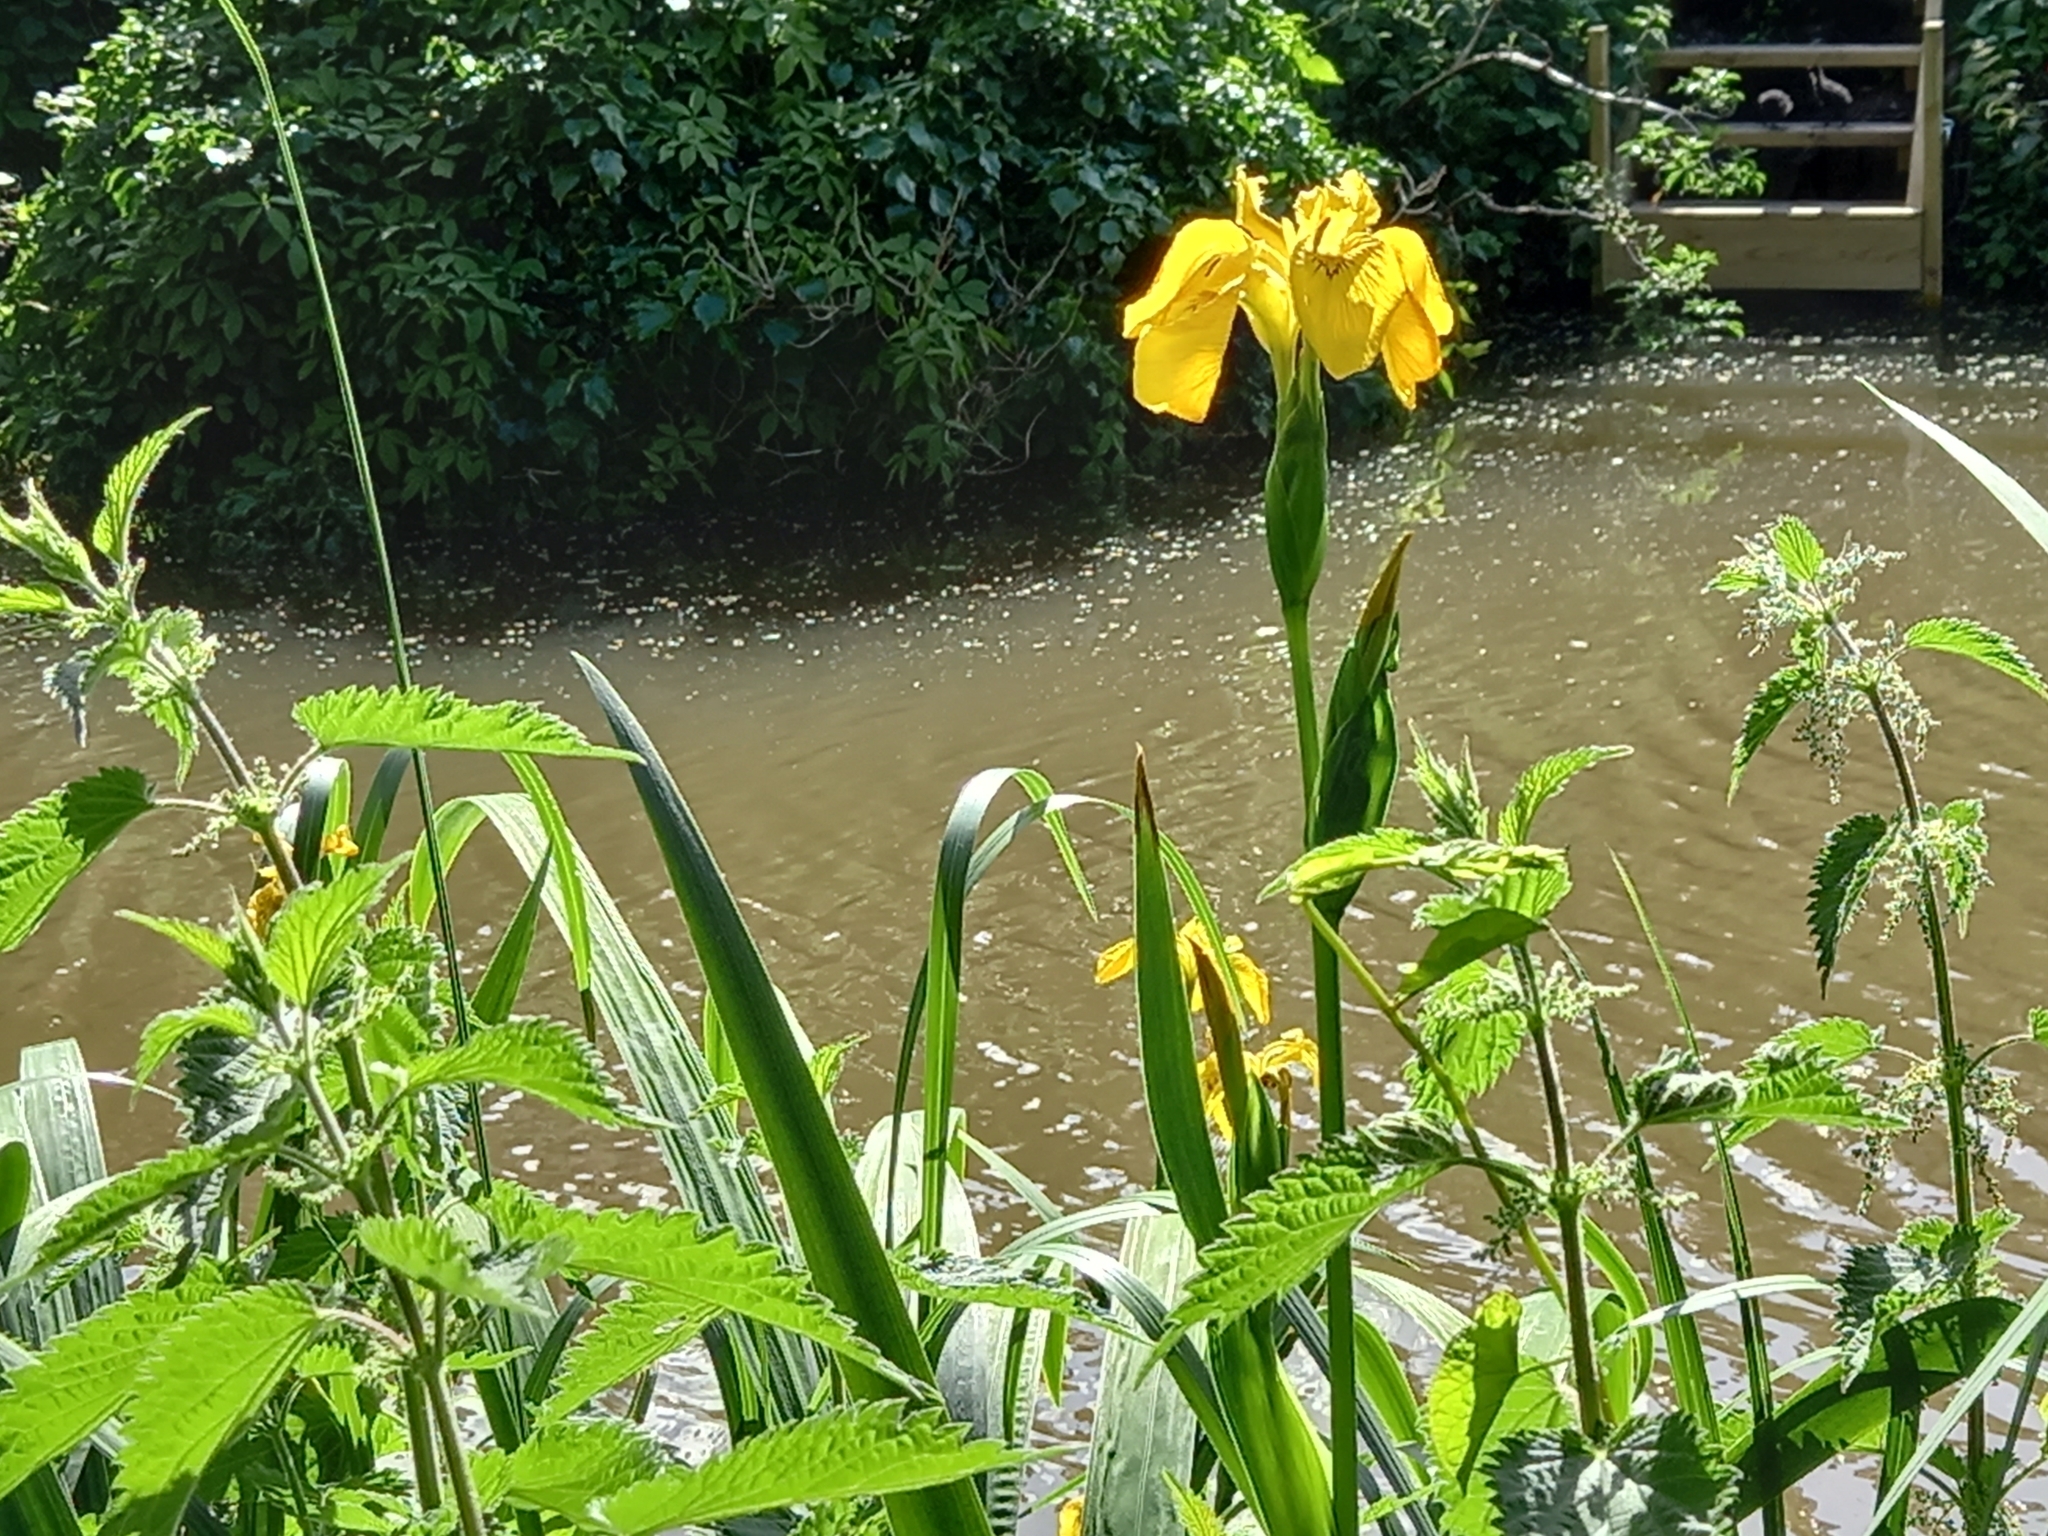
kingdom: Plantae
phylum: Tracheophyta
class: Liliopsida
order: Asparagales
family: Iridaceae
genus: Iris
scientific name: Iris pseudacorus
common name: Yellow flag
